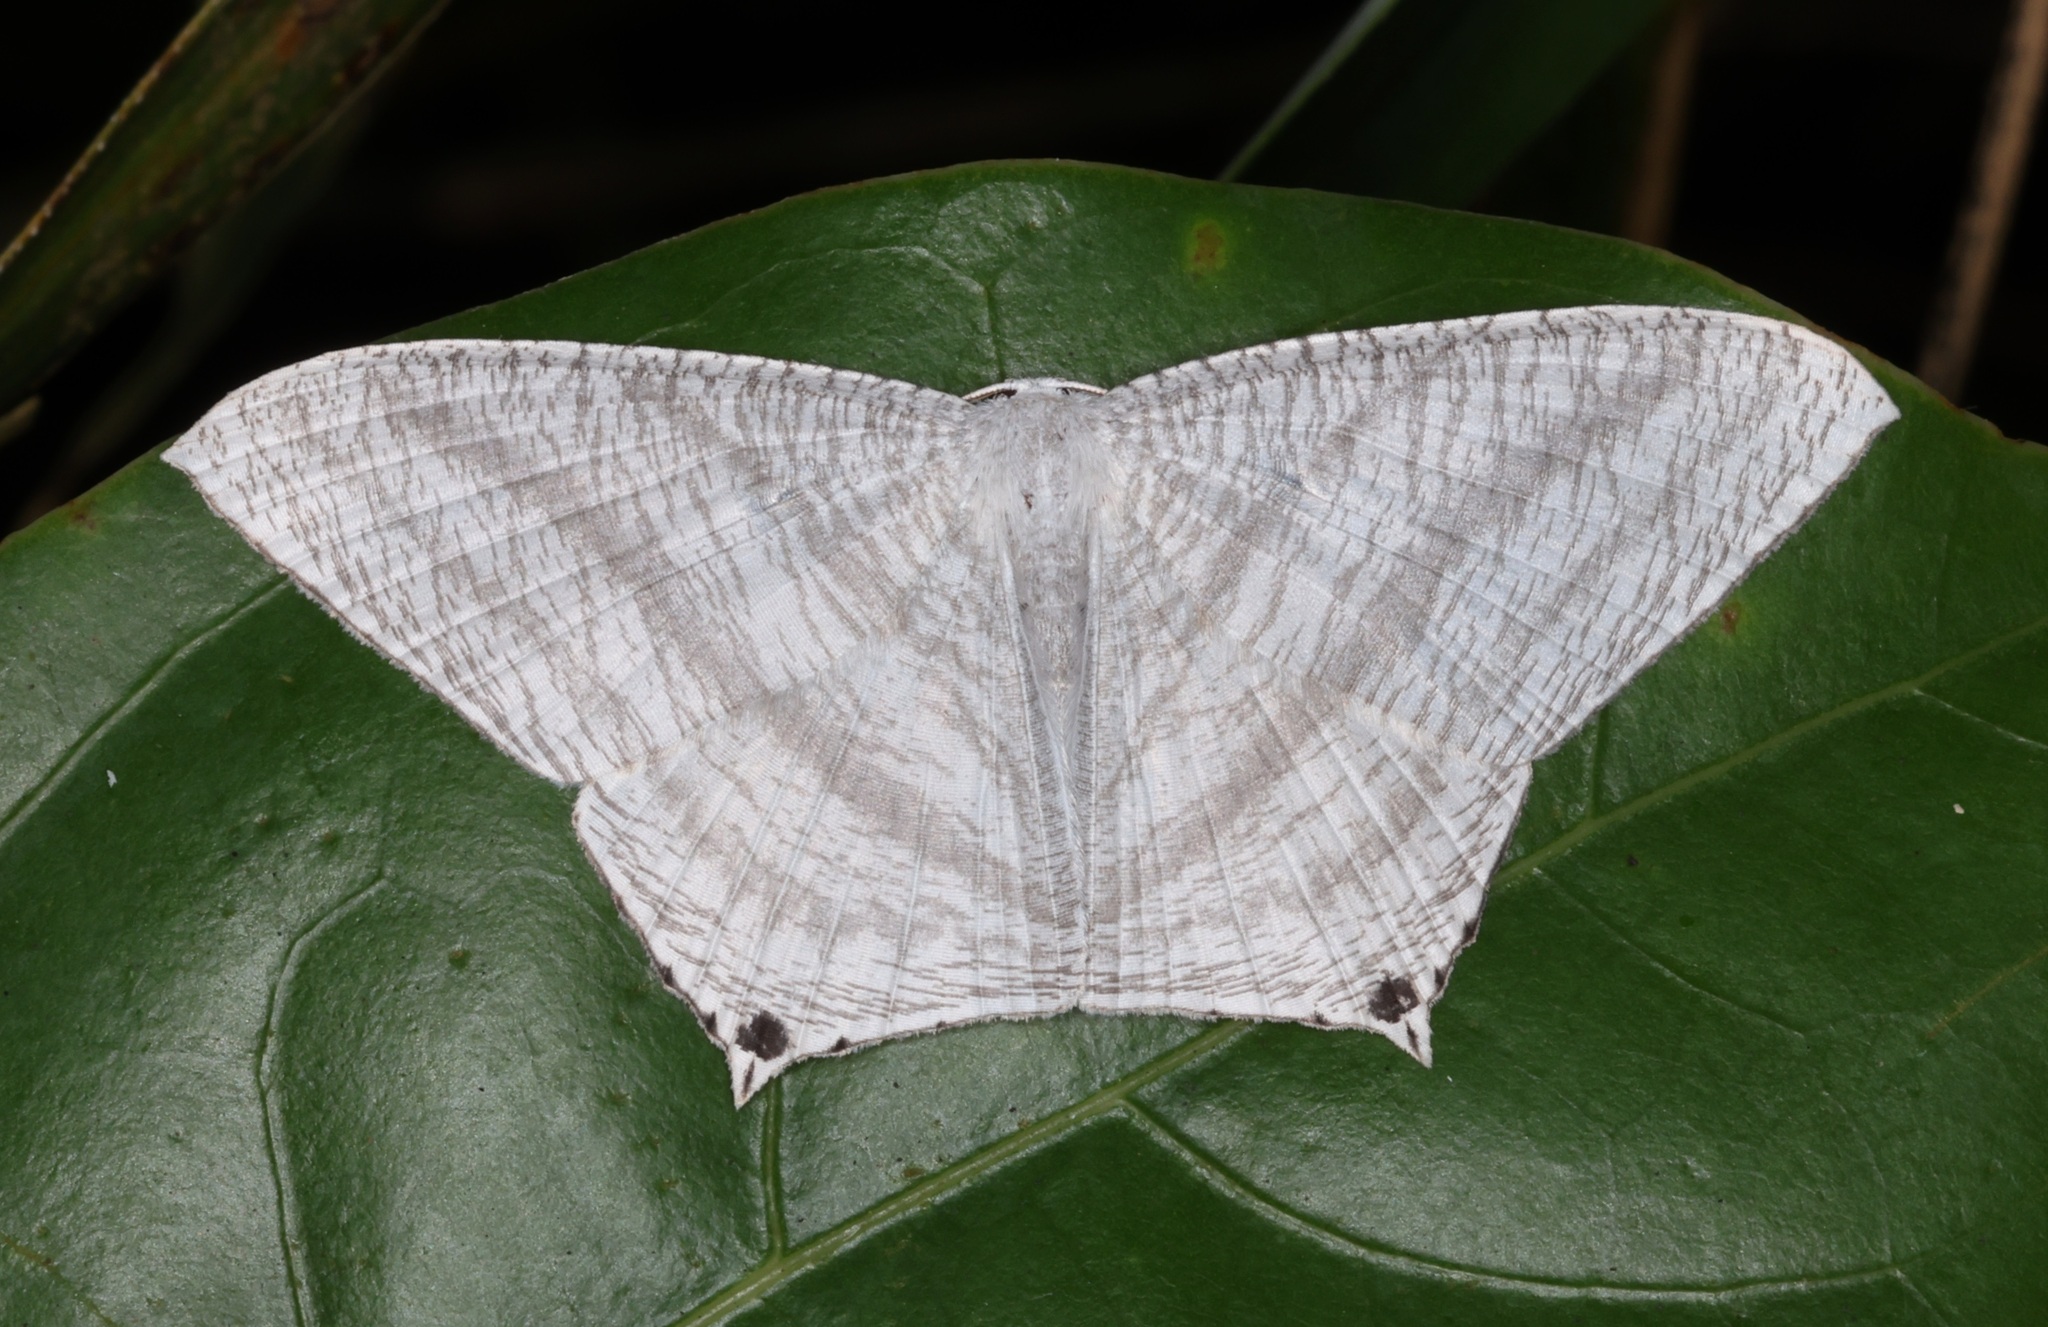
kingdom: Animalia
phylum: Arthropoda
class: Insecta
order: Lepidoptera
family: Uraniidae
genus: Micronia
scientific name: Micronia aculeata
